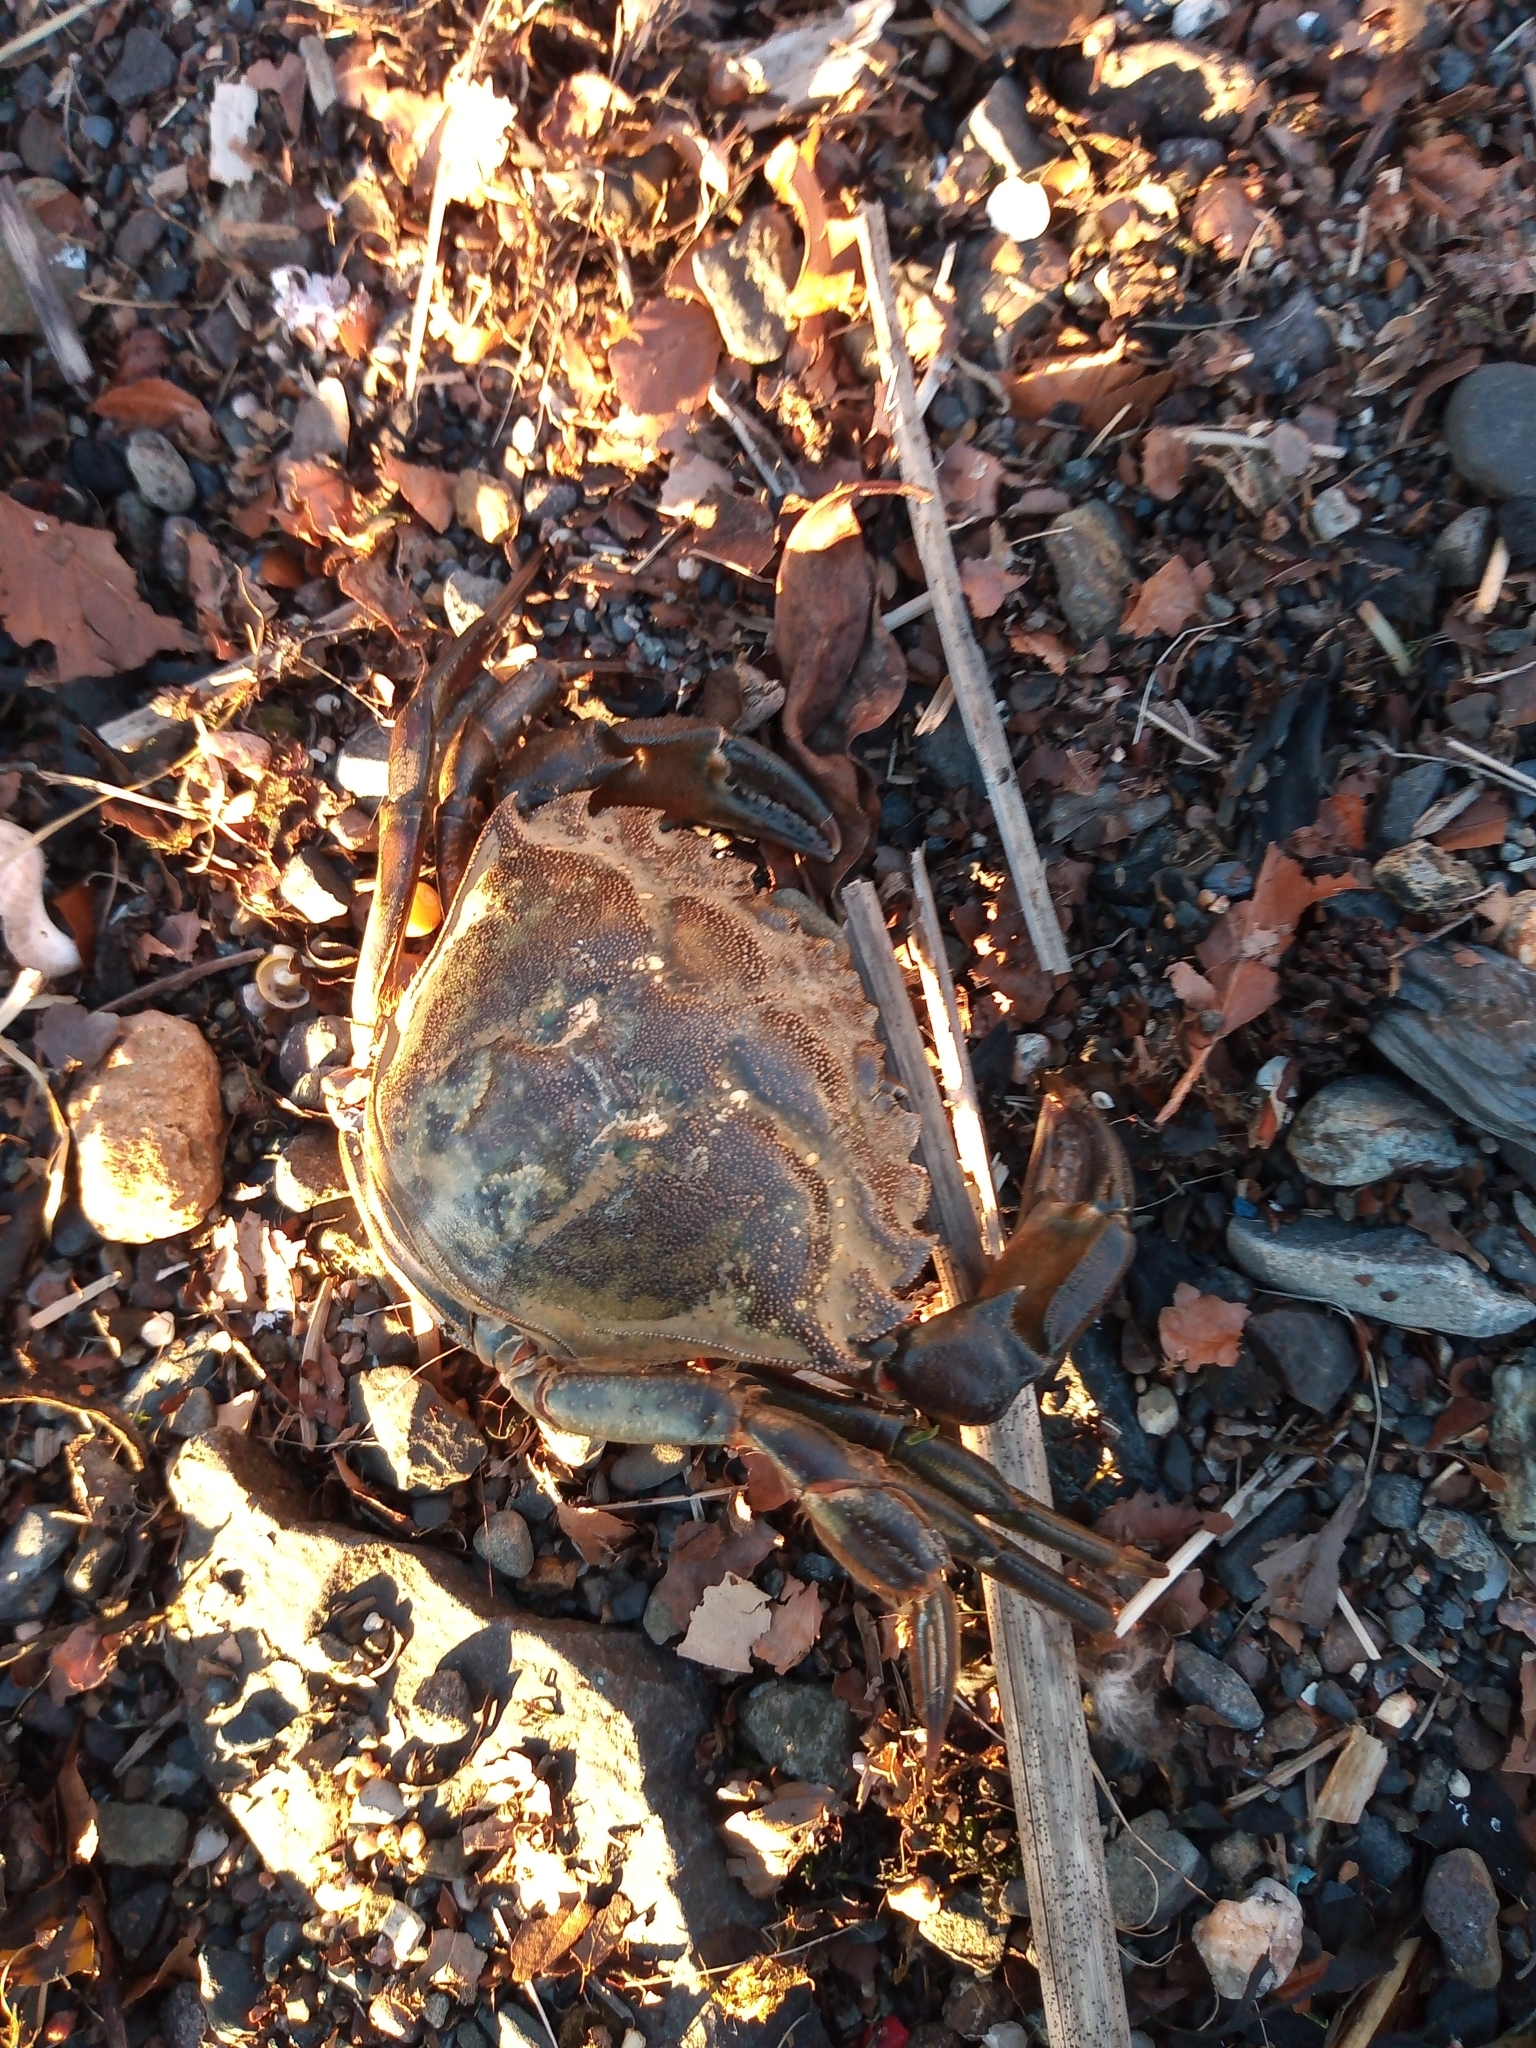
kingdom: Animalia
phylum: Arthropoda
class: Malacostraca
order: Decapoda
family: Carcinidae
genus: Carcinus
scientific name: Carcinus maenas
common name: European green crab
